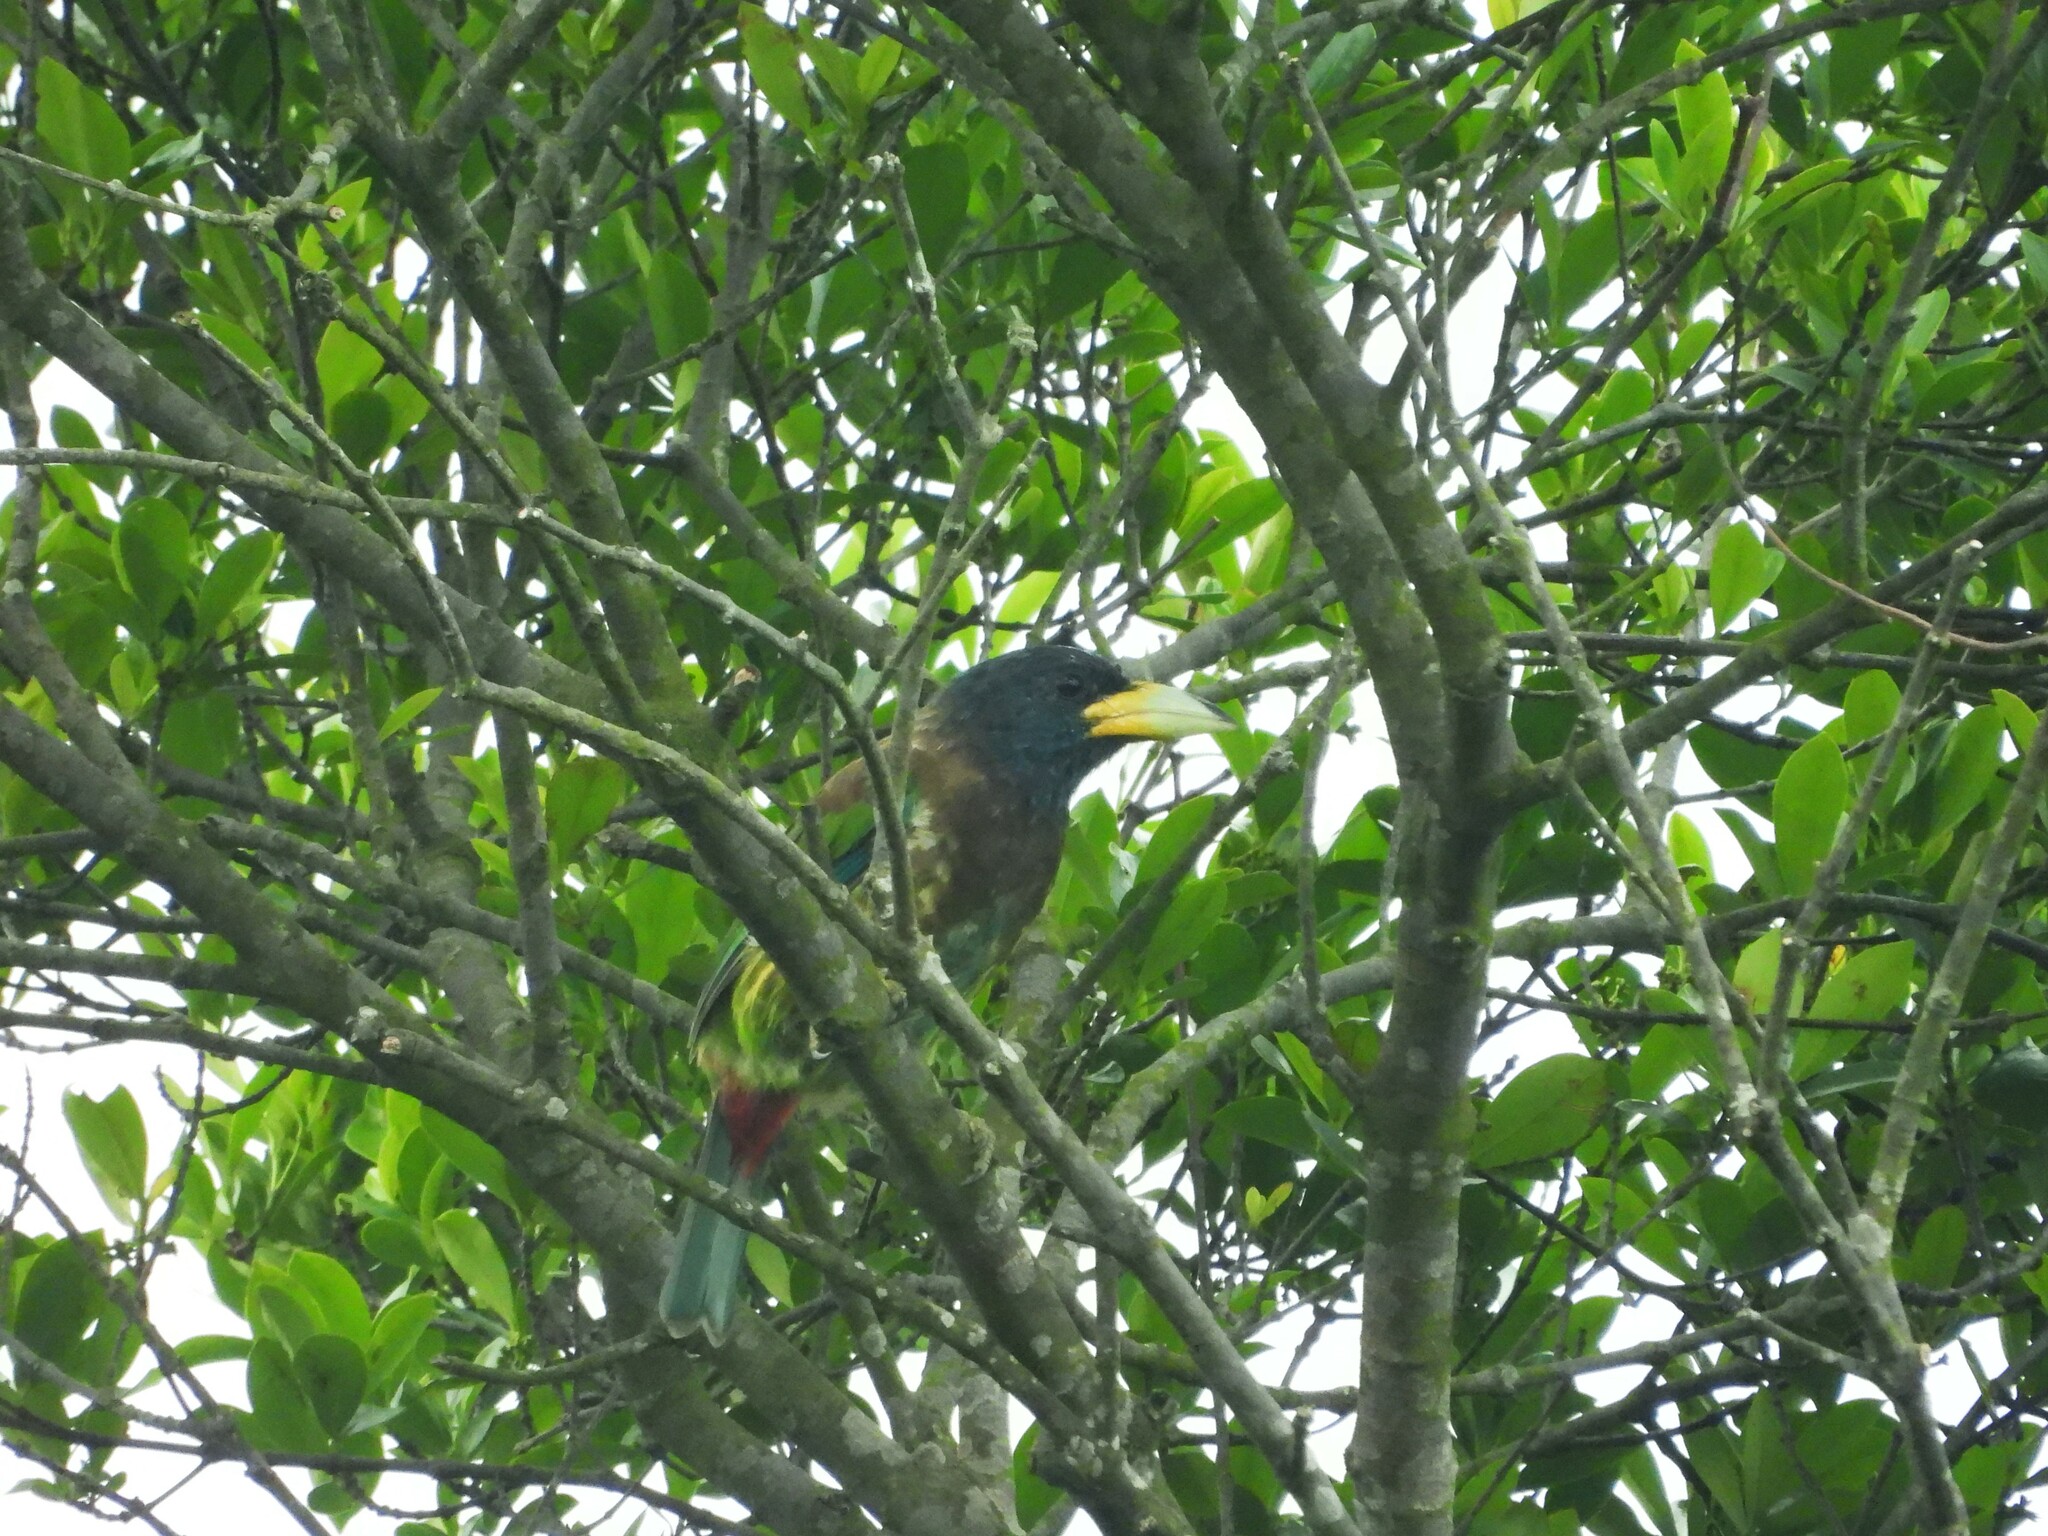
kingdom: Animalia
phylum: Chordata
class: Aves
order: Piciformes
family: Megalaimidae
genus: Psilopogon
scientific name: Psilopogon virens
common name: Great barbet
